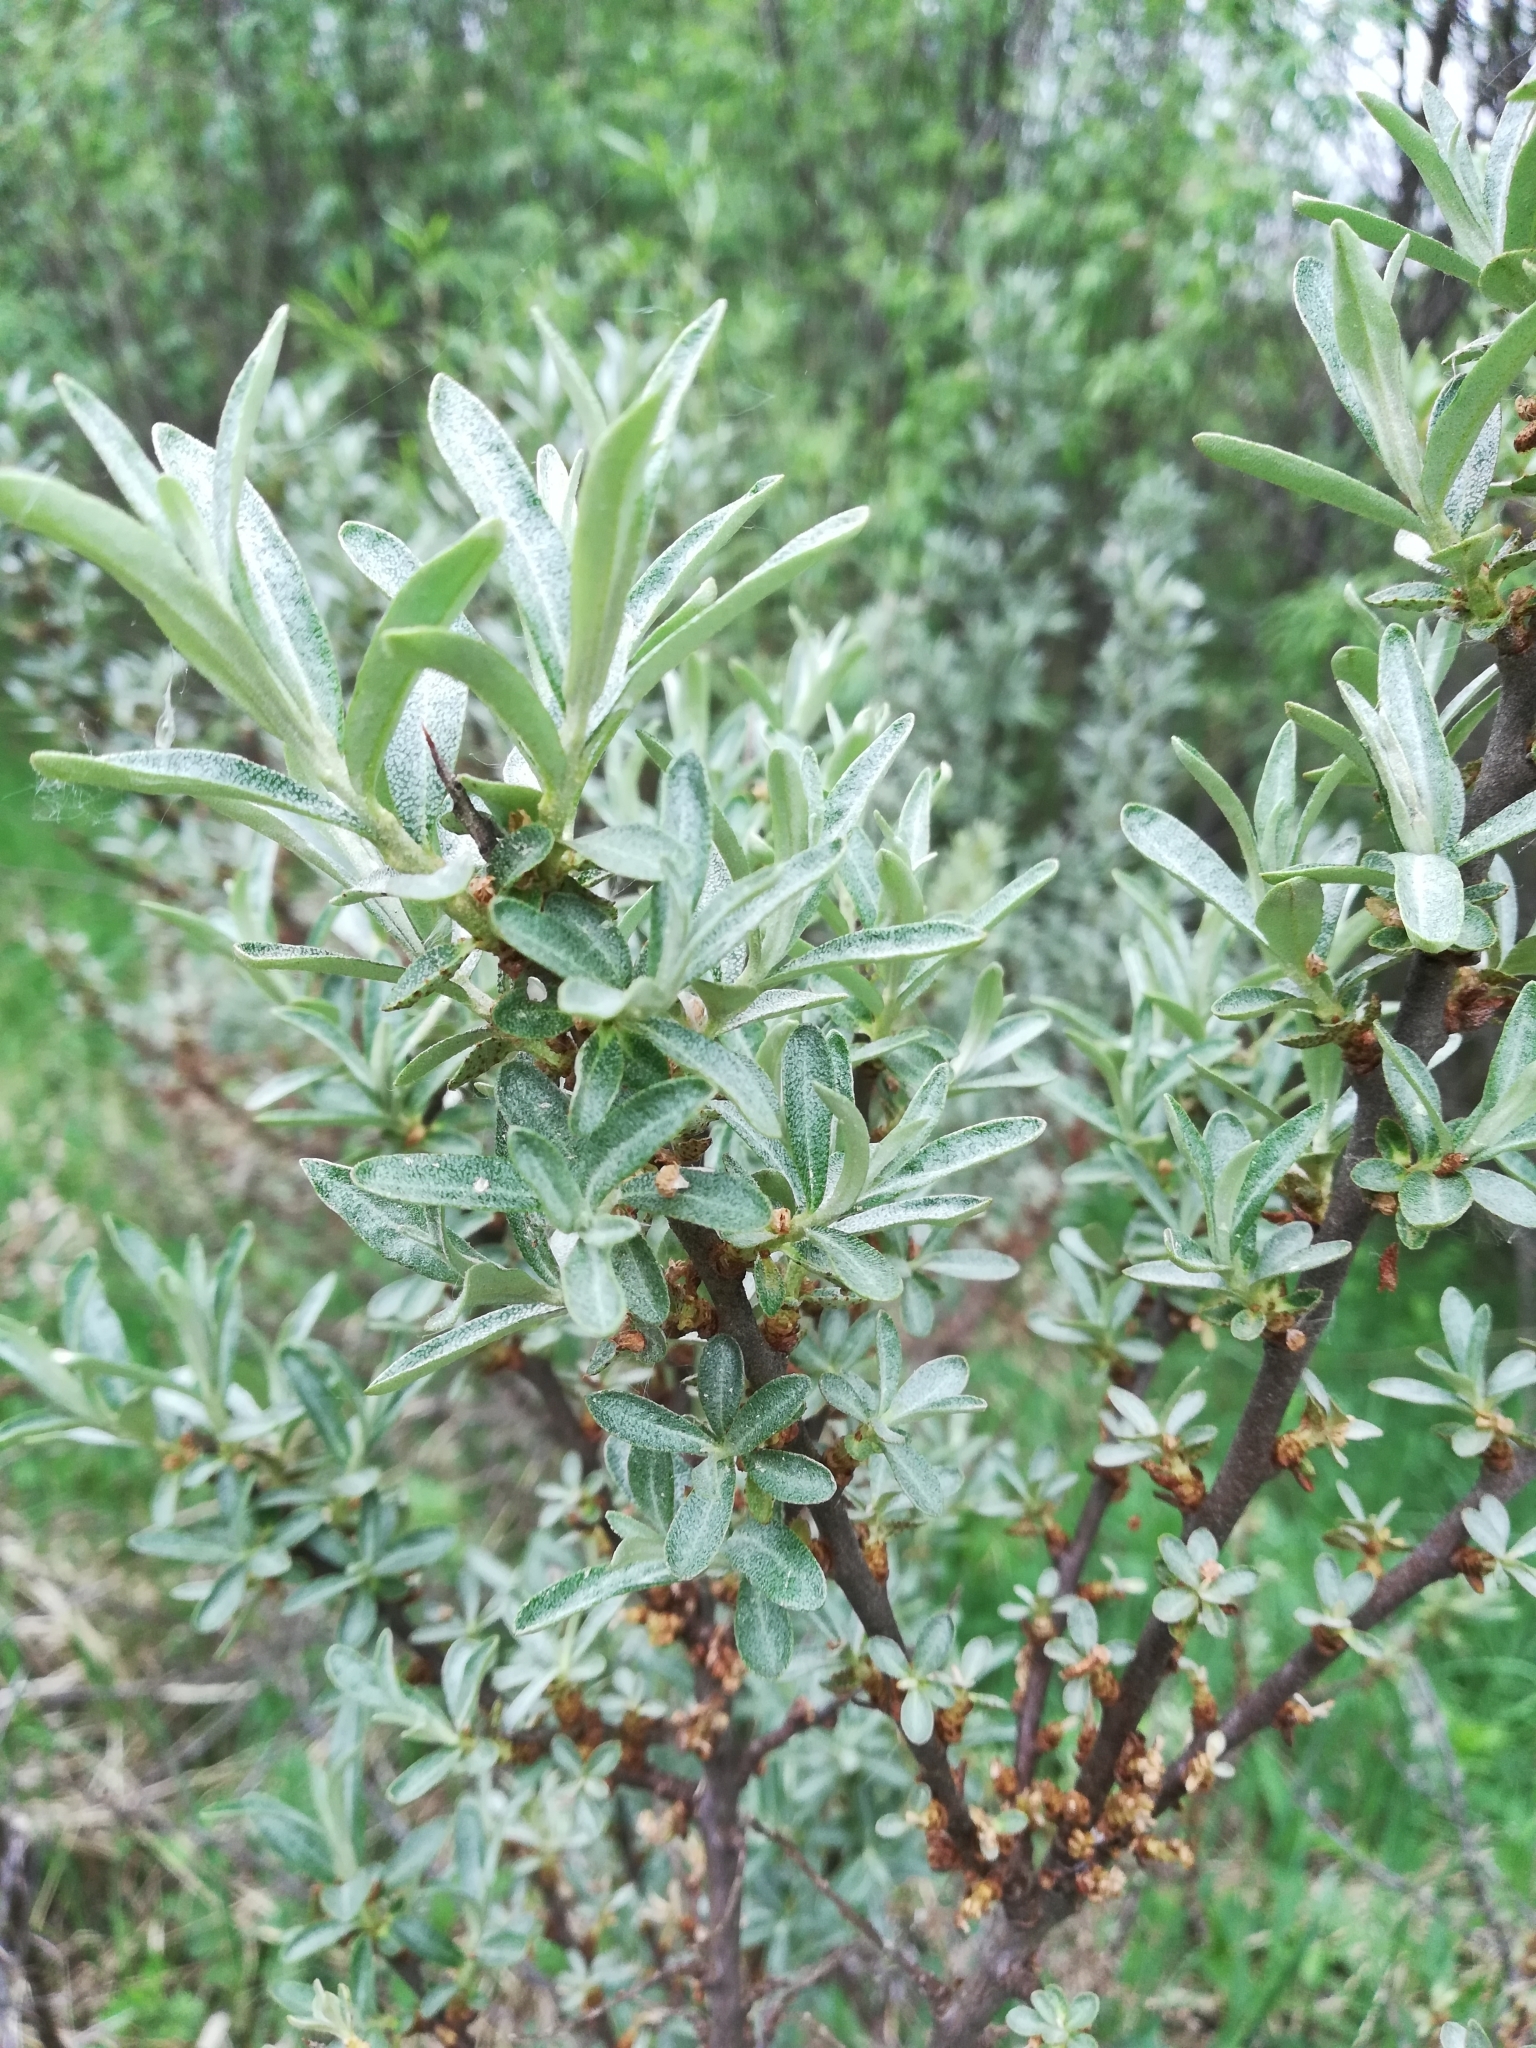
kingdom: Plantae
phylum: Tracheophyta
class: Magnoliopsida
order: Rosales
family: Elaeagnaceae
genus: Hippophae
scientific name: Hippophae rhamnoides
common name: Sea-buckthorn
